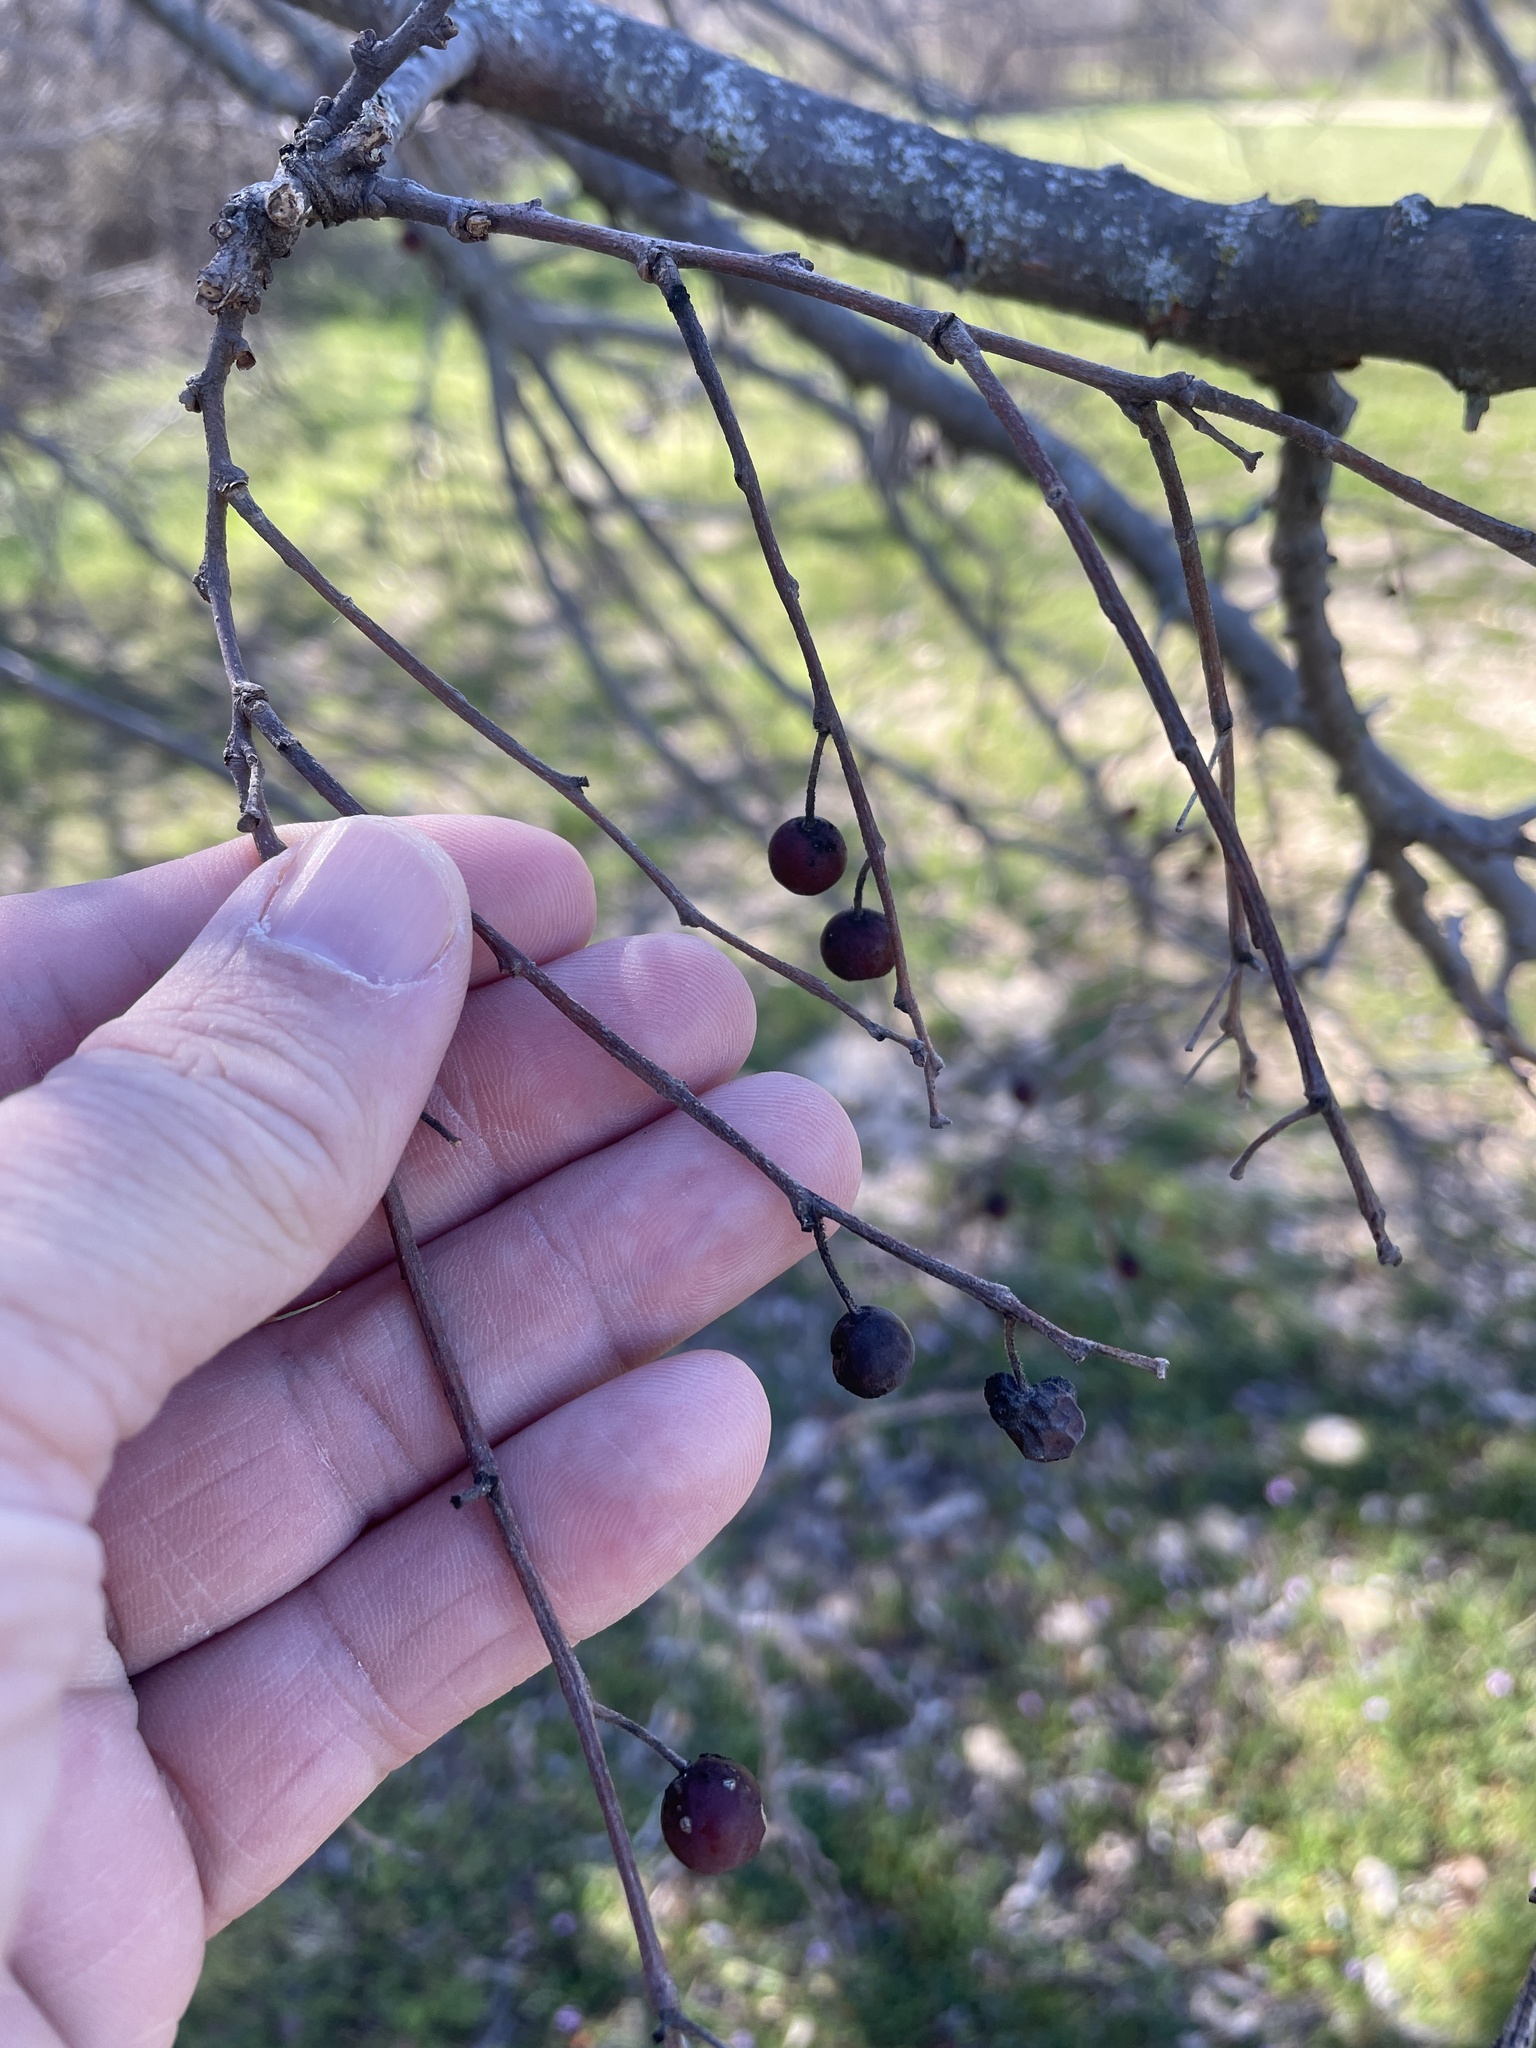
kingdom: Plantae
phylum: Tracheophyta
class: Magnoliopsida
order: Rosales
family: Cannabaceae
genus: Celtis
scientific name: Celtis laevigata
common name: Sugarberry
